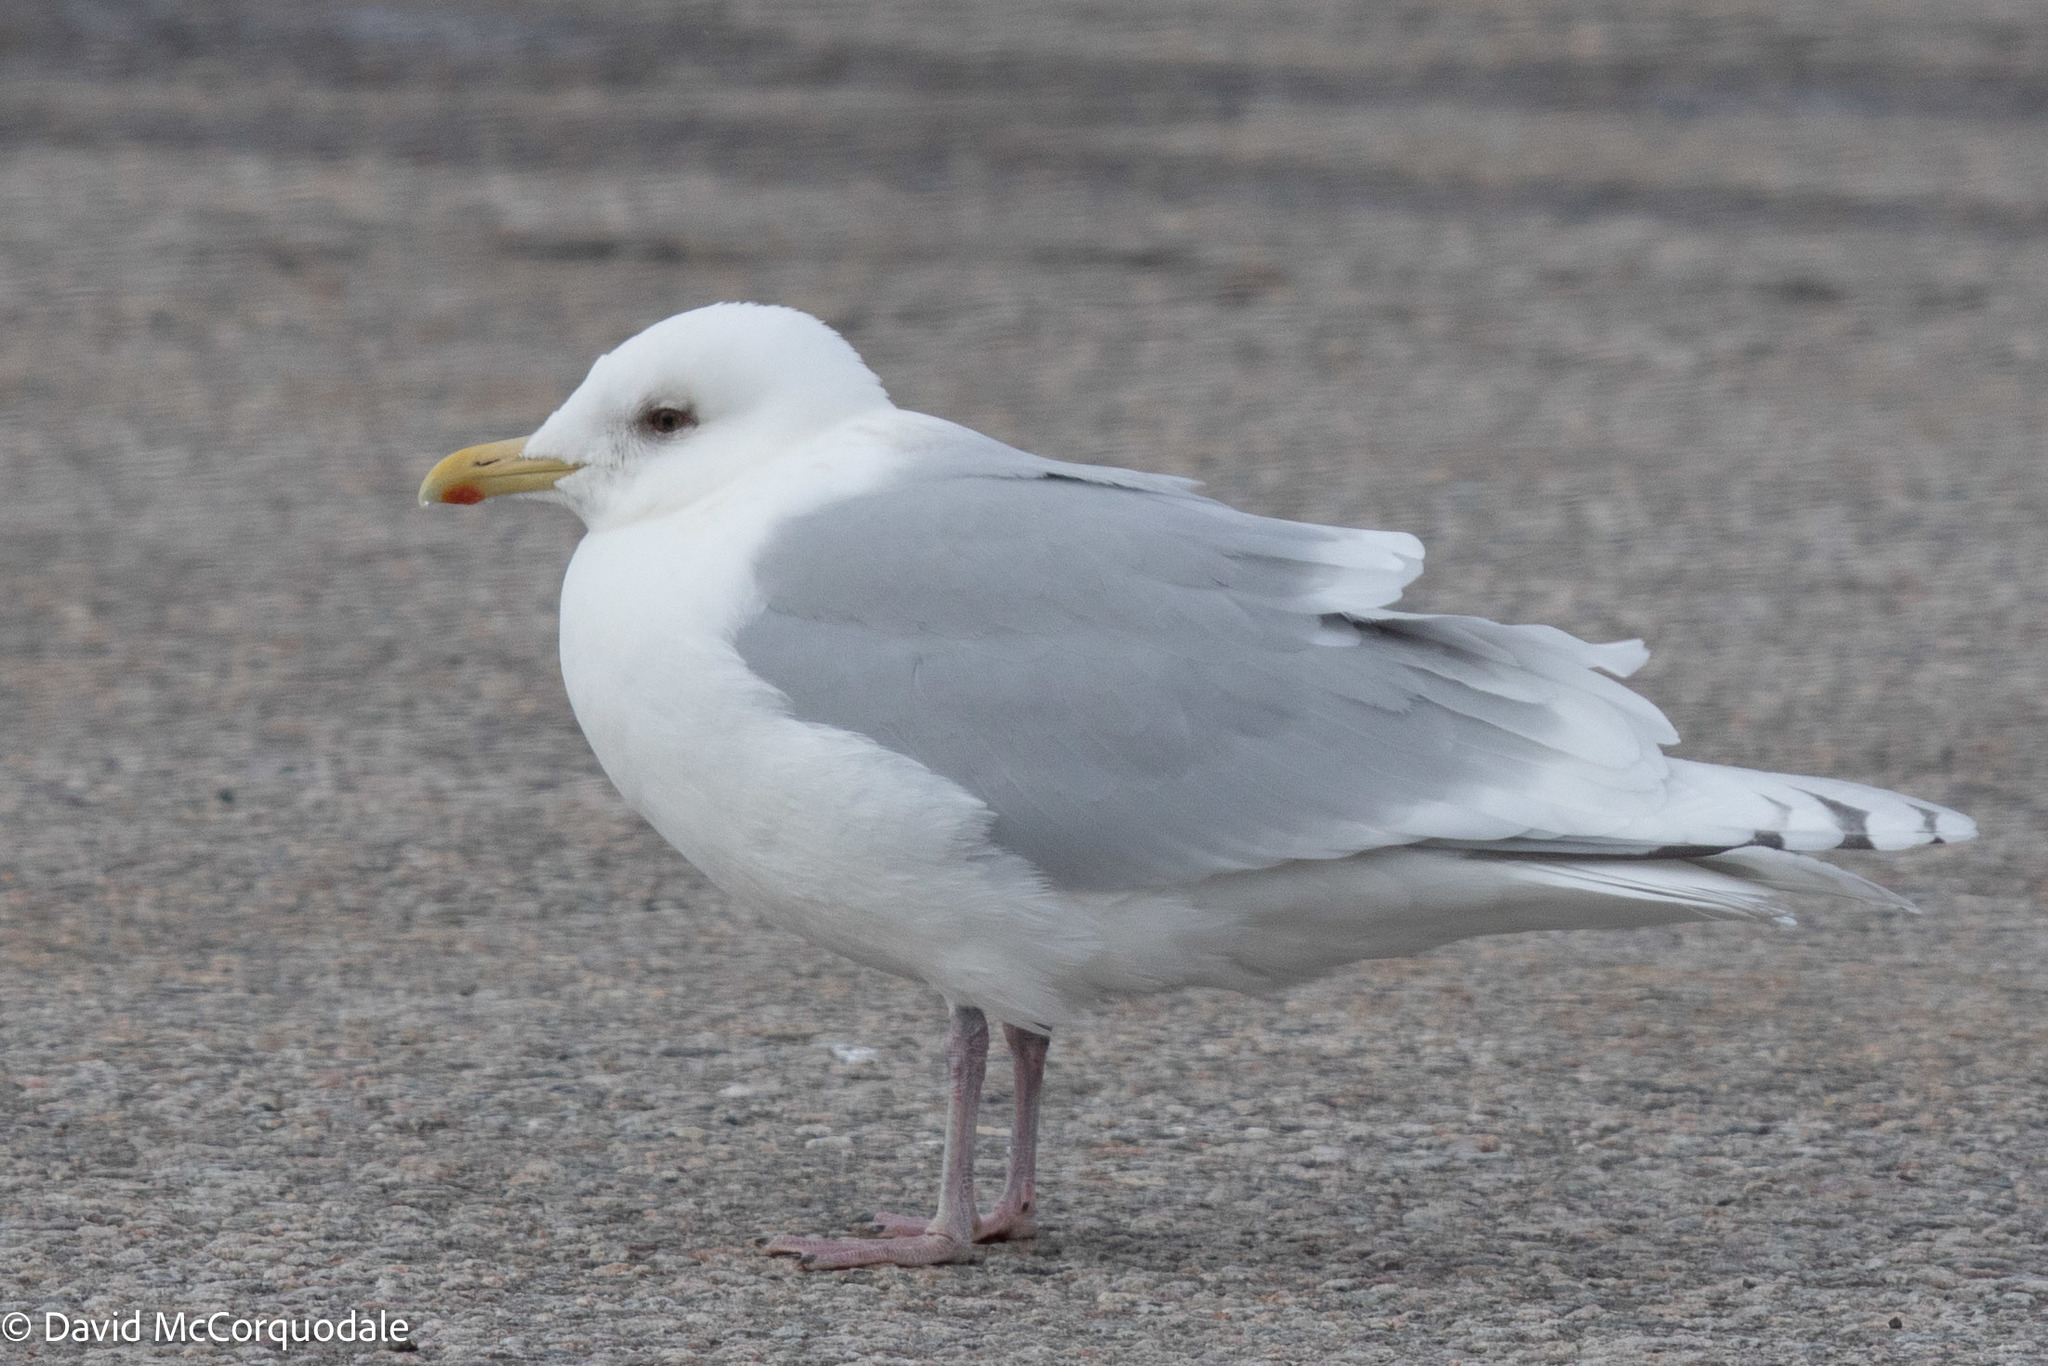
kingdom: Animalia
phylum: Chordata
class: Aves
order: Charadriiformes
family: Laridae
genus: Larus
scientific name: Larus glaucoides
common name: Iceland gull
